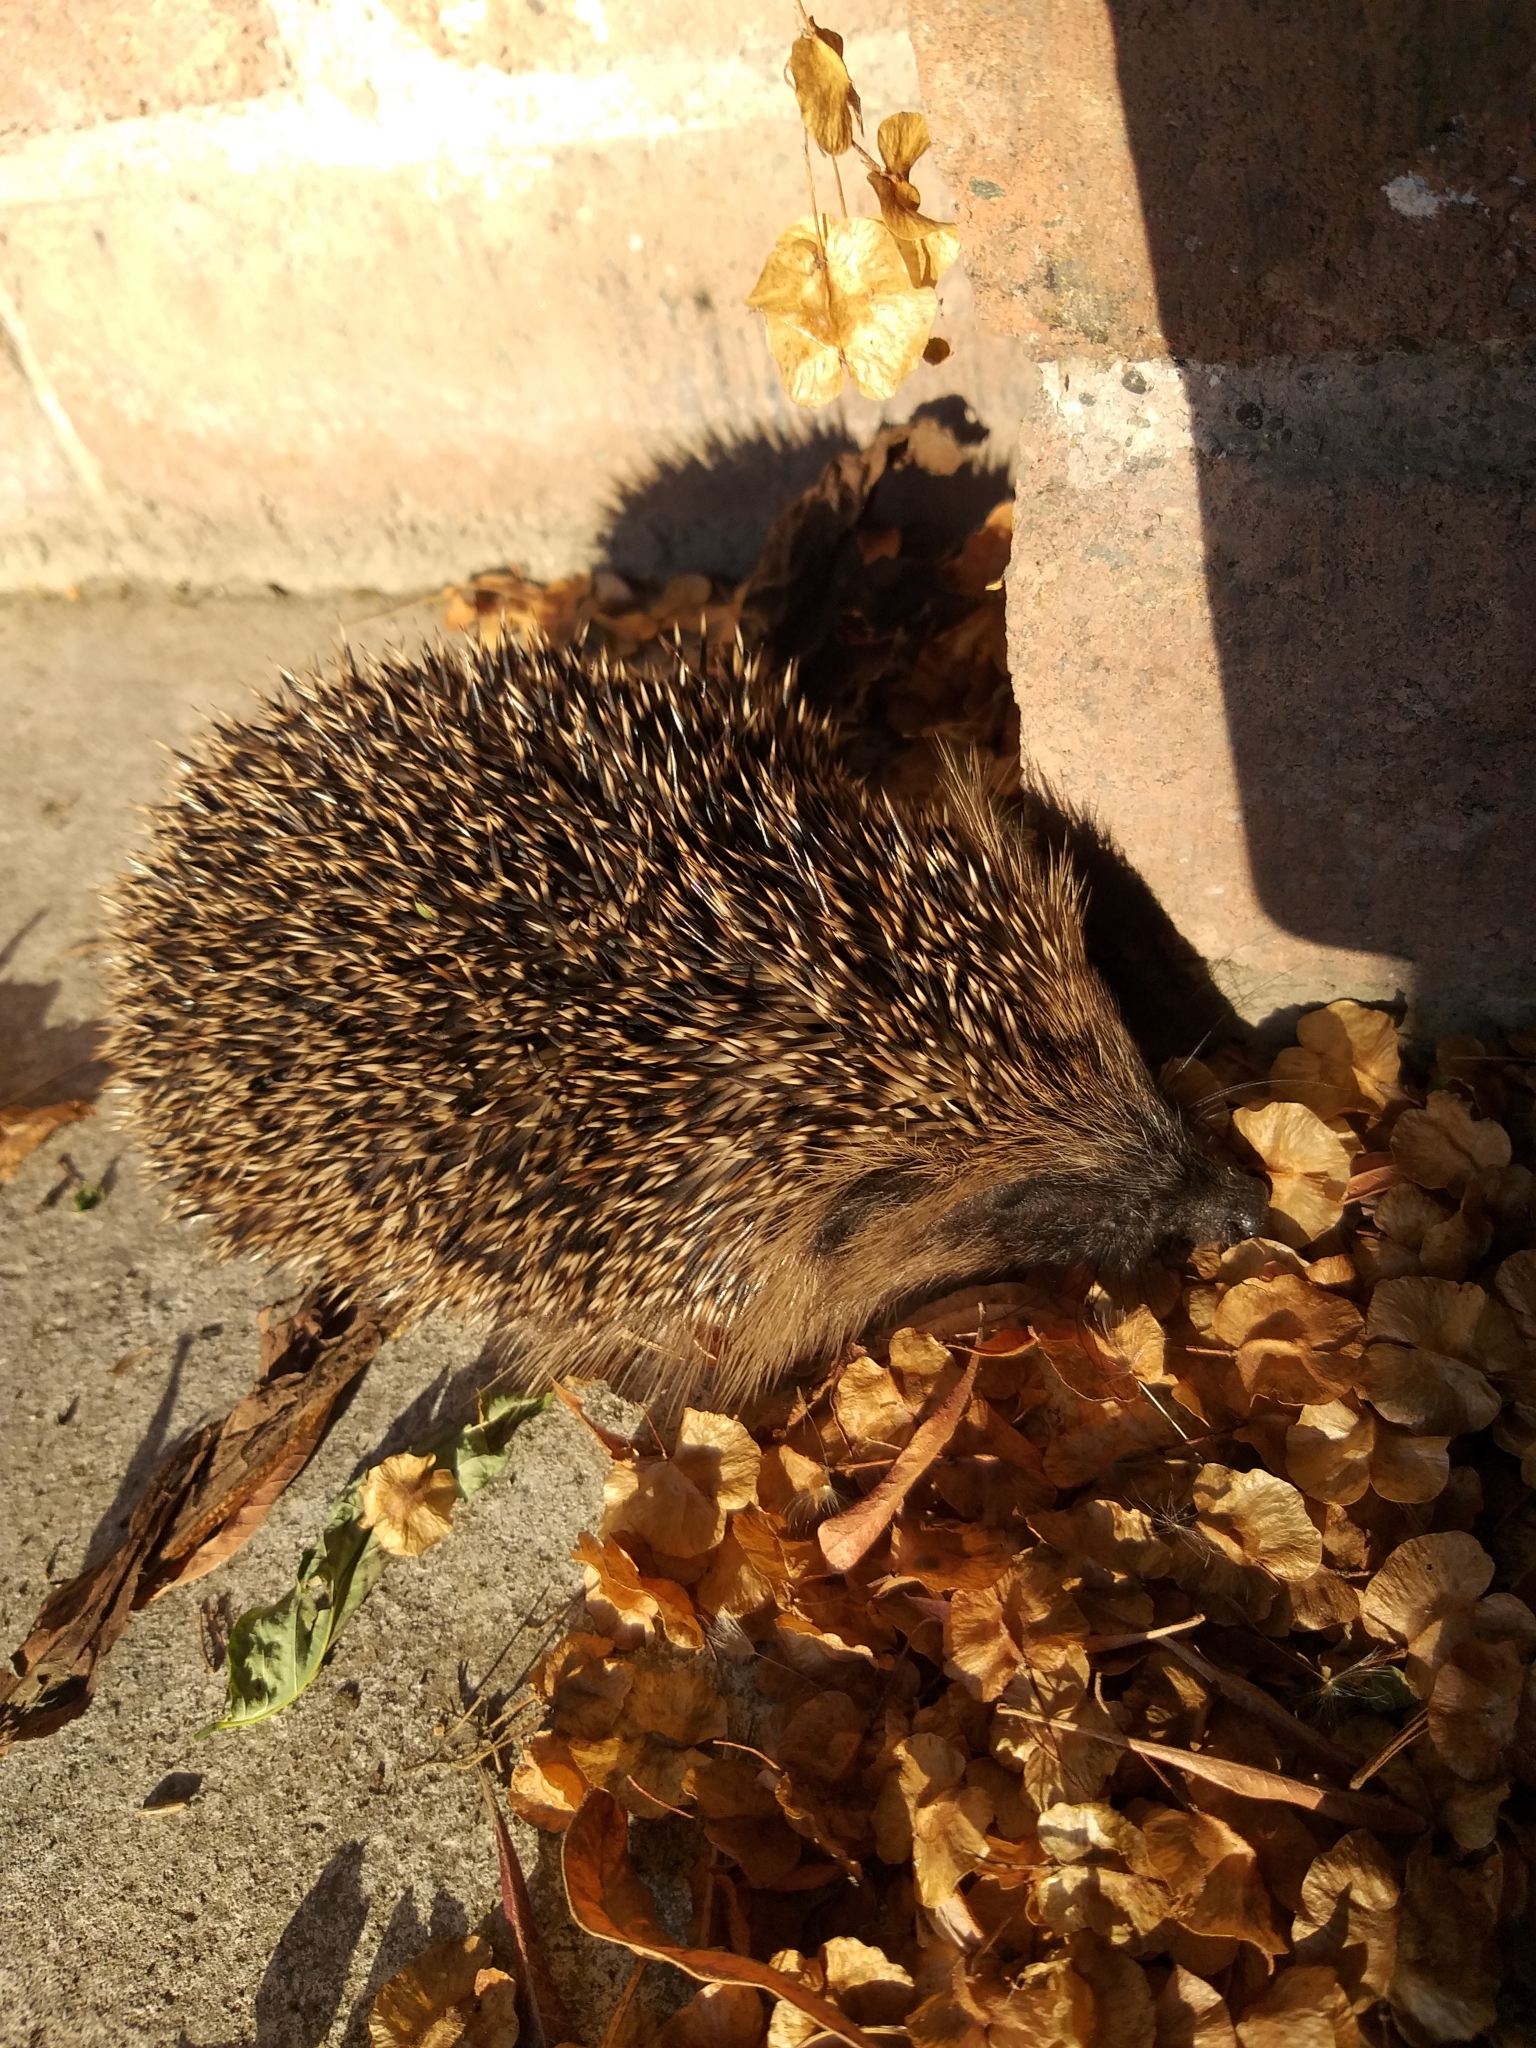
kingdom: Animalia
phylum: Chordata
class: Mammalia
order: Erinaceomorpha
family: Erinaceidae
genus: Erinaceus
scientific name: Erinaceus europaeus
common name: West european hedgehog
